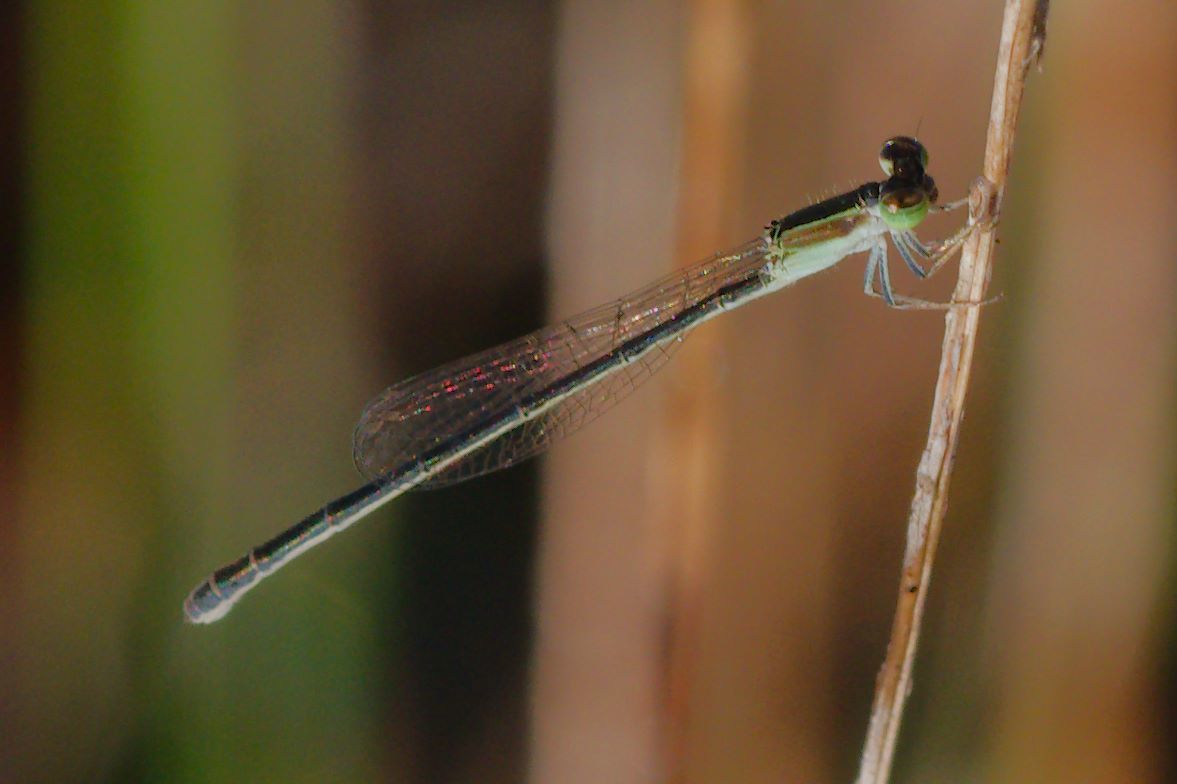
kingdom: Animalia
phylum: Arthropoda
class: Insecta
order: Odonata
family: Coenagrionidae
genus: Ischnura
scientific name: Ischnura hastata
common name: Citrine forktail
